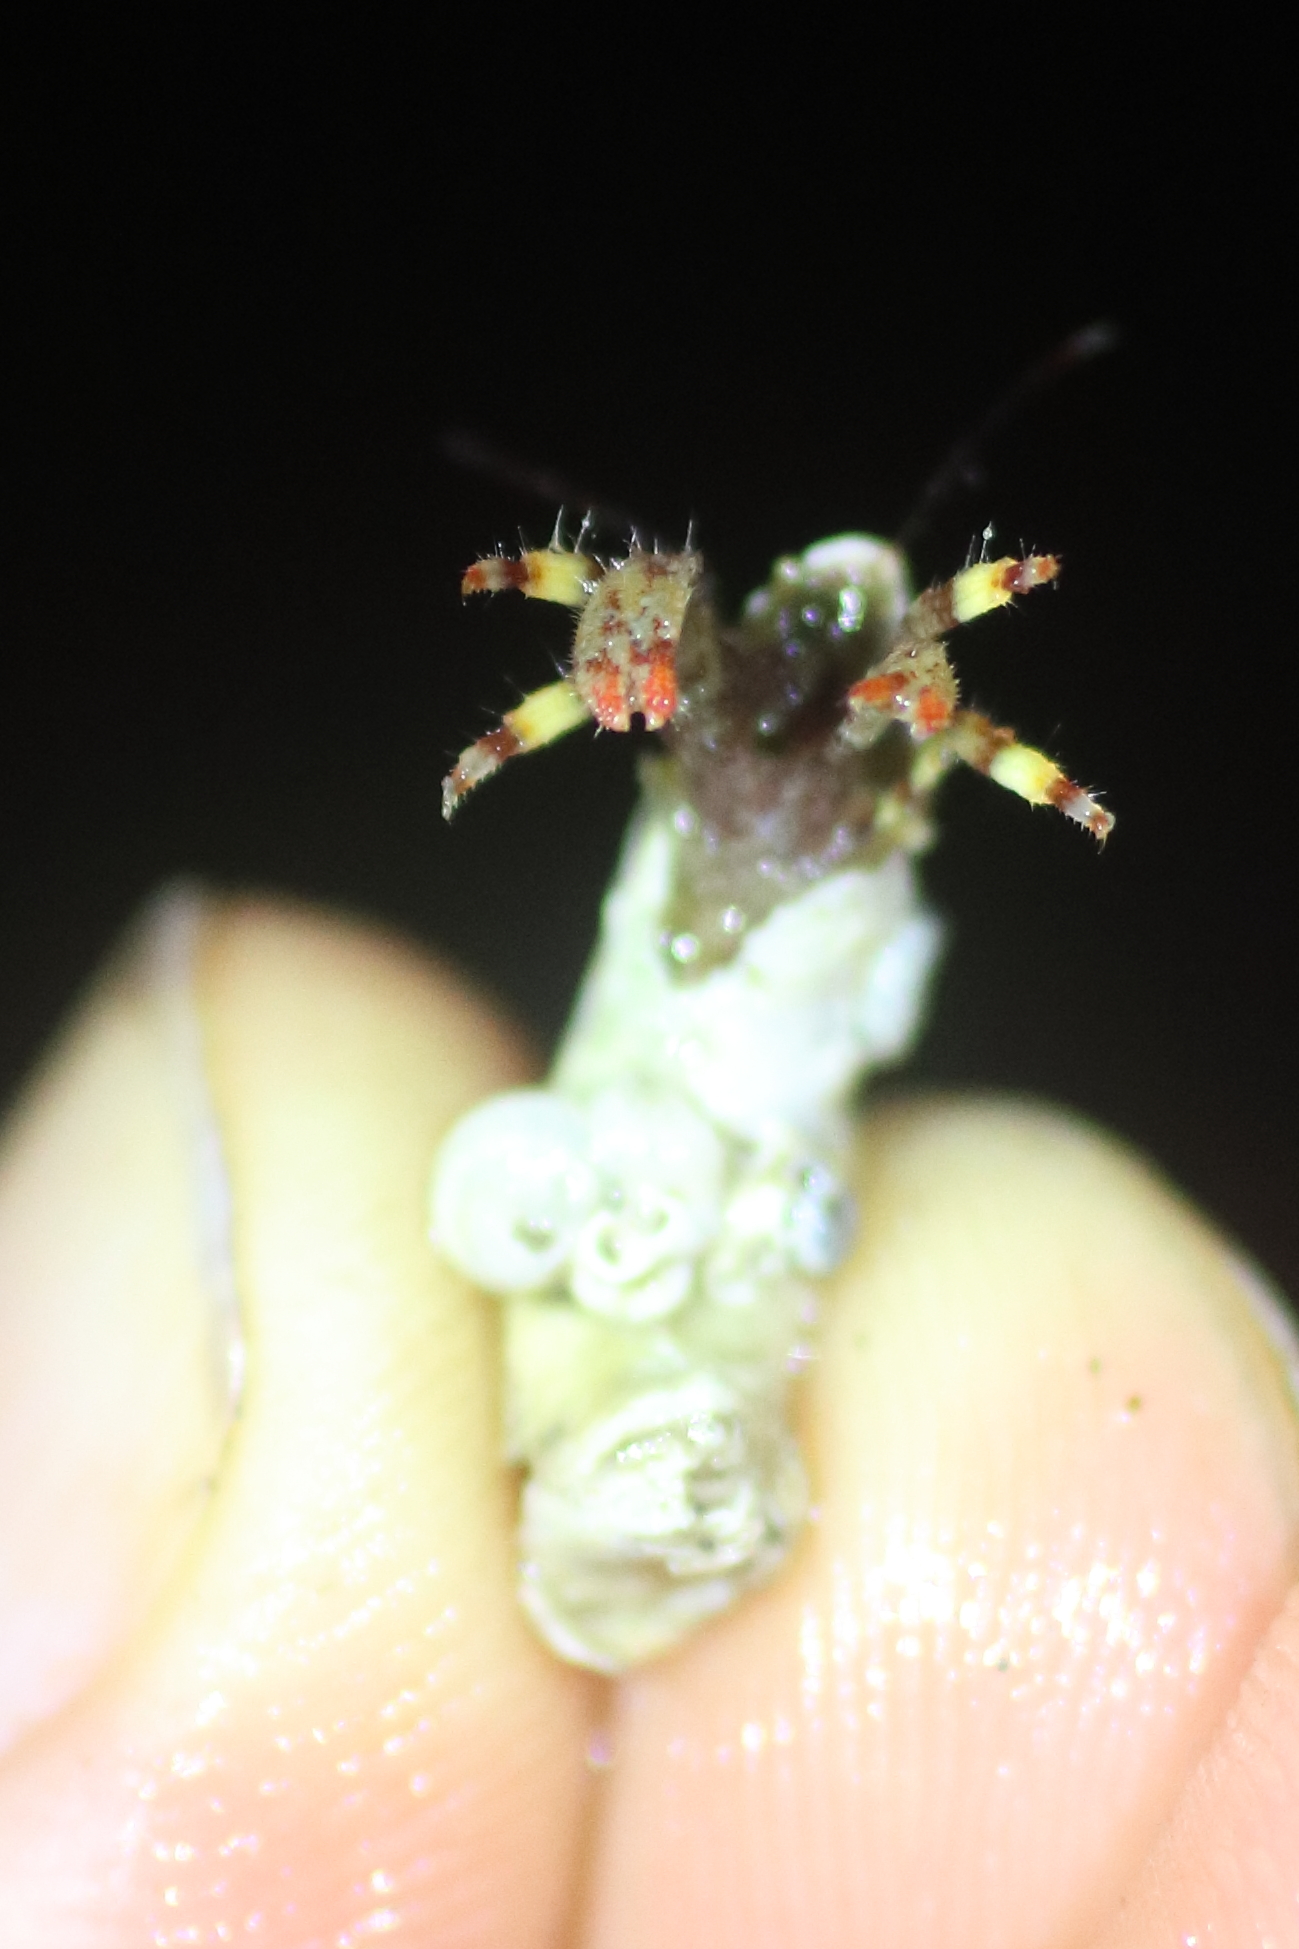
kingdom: Animalia
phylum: Arthropoda
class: Malacostraca
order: Decapoda
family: Paguridae
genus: Discorsopagurus
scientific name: Discorsopagurus schmitti
